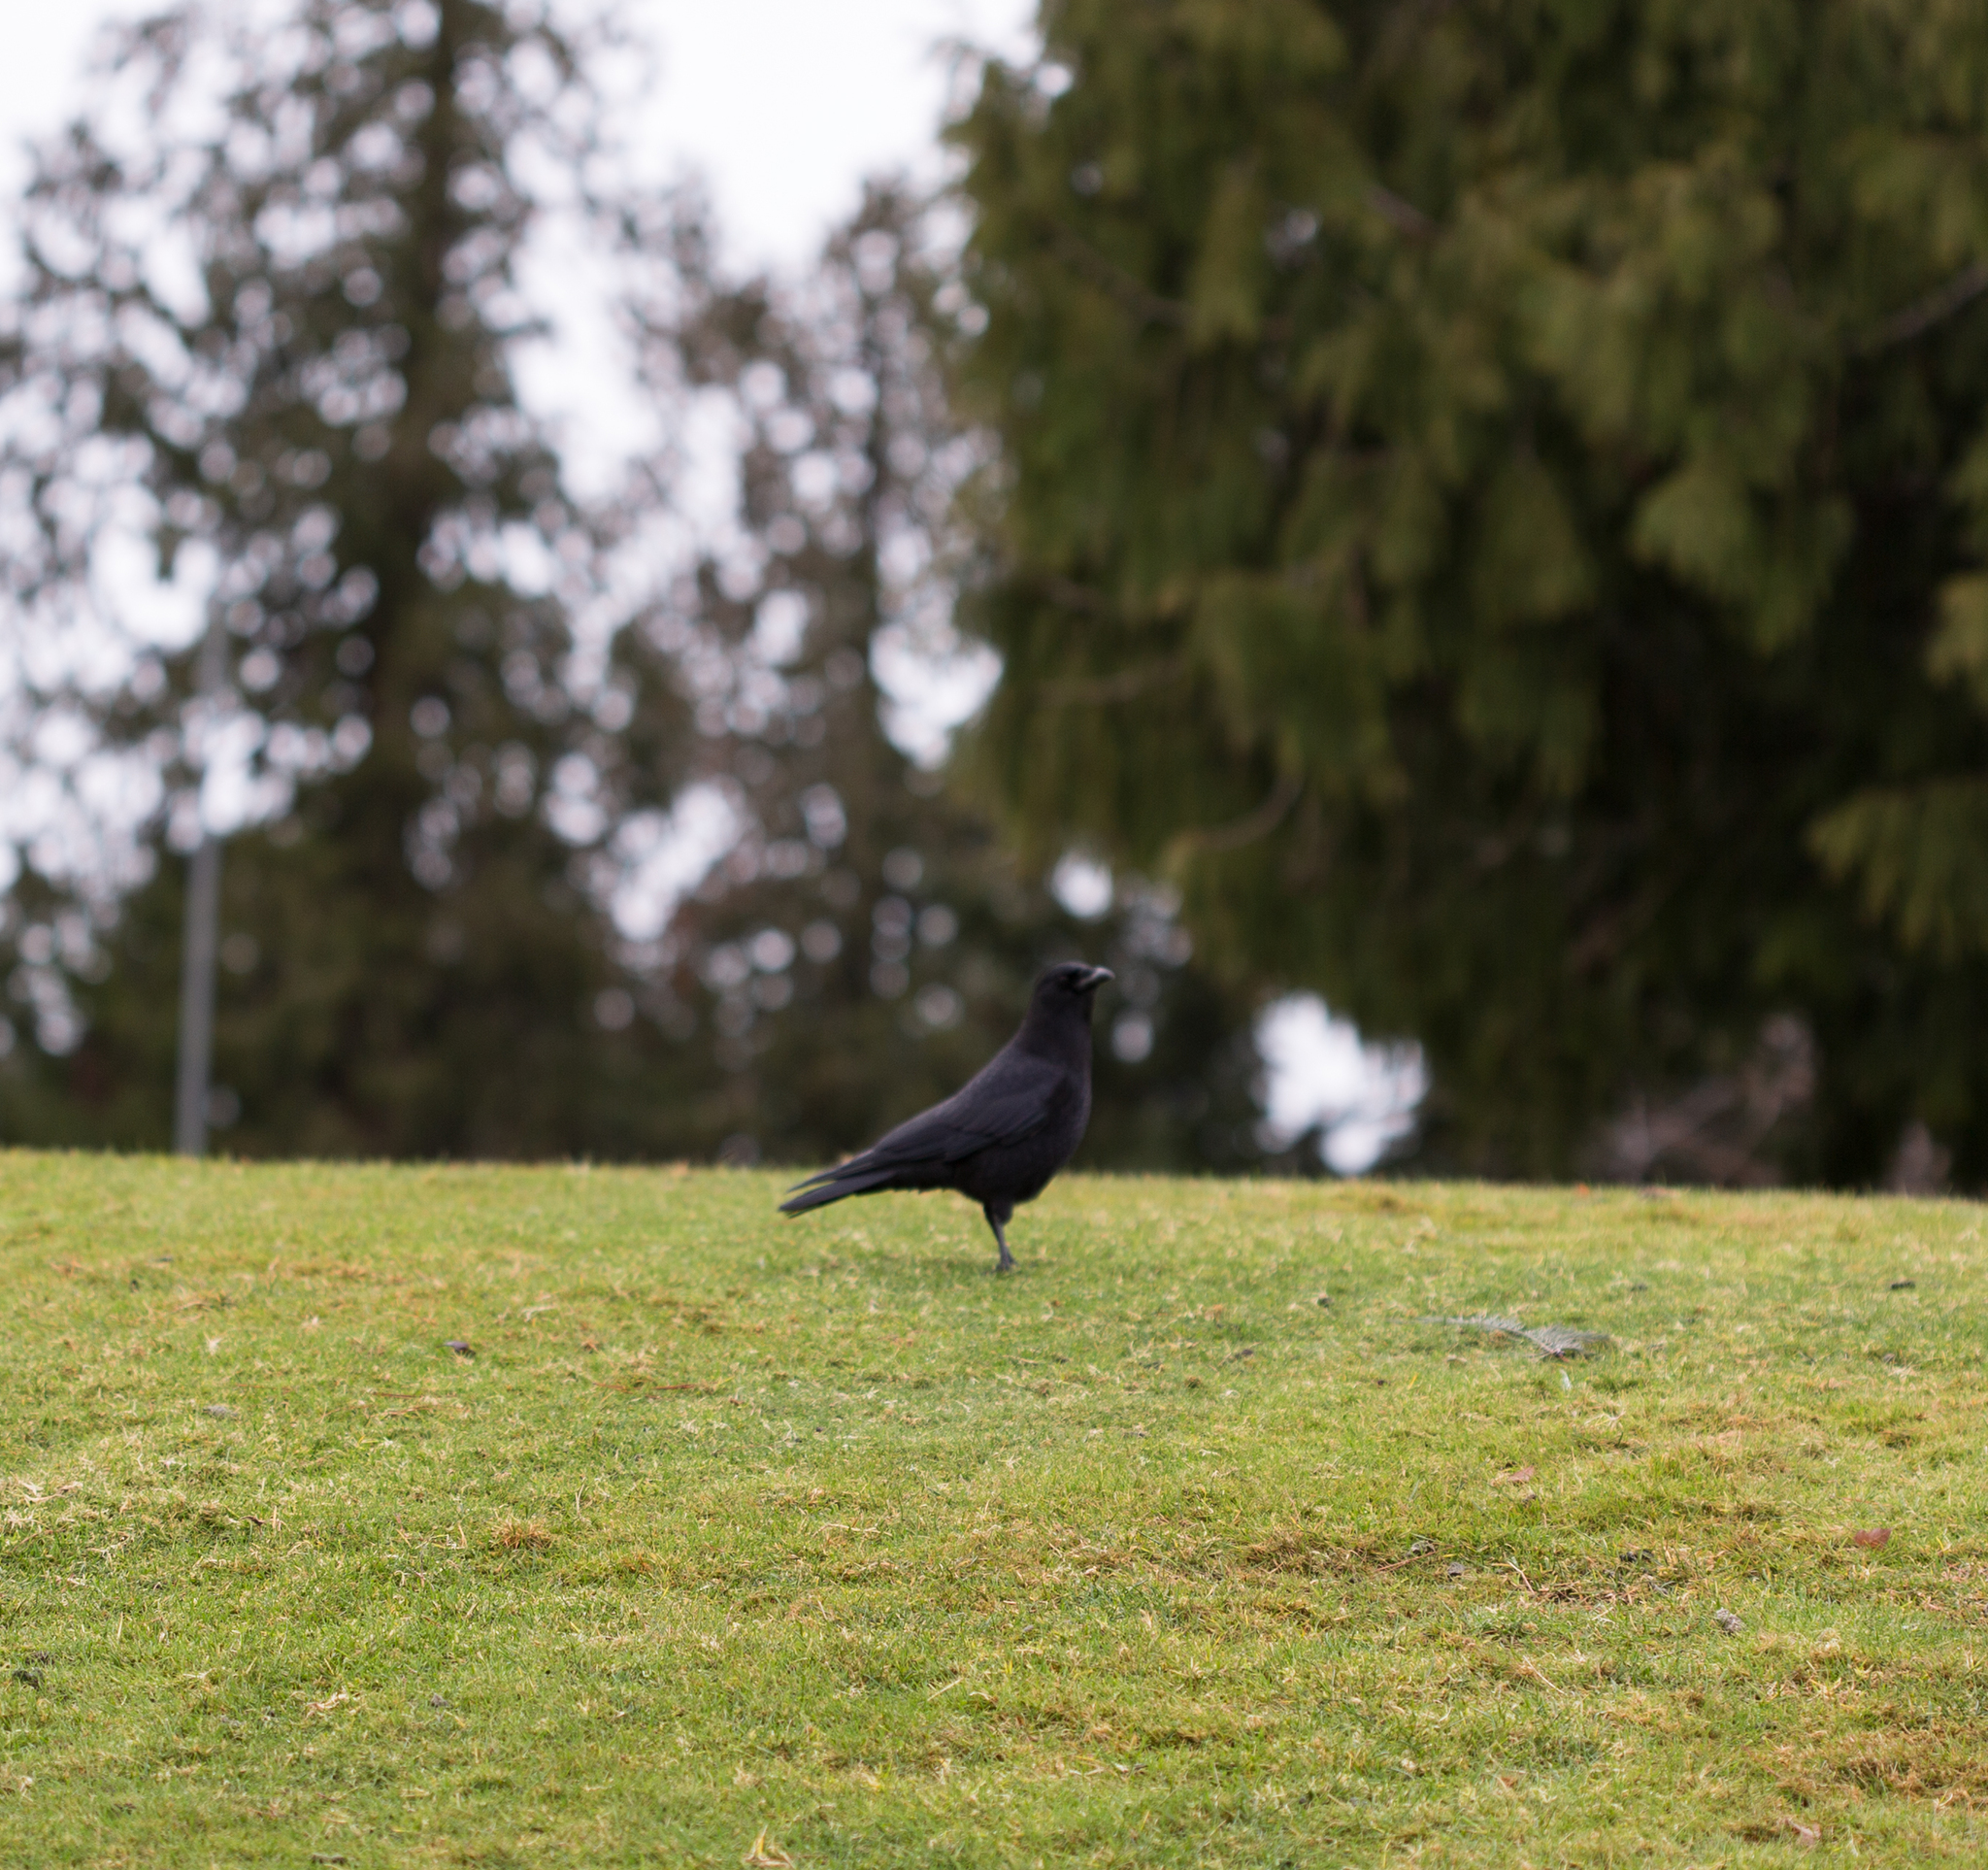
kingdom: Animalia
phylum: Chordata
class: Aves
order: Passeriformes
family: Corvidae
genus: Corvus
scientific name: Corvus brachyrhynchos
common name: American crow
